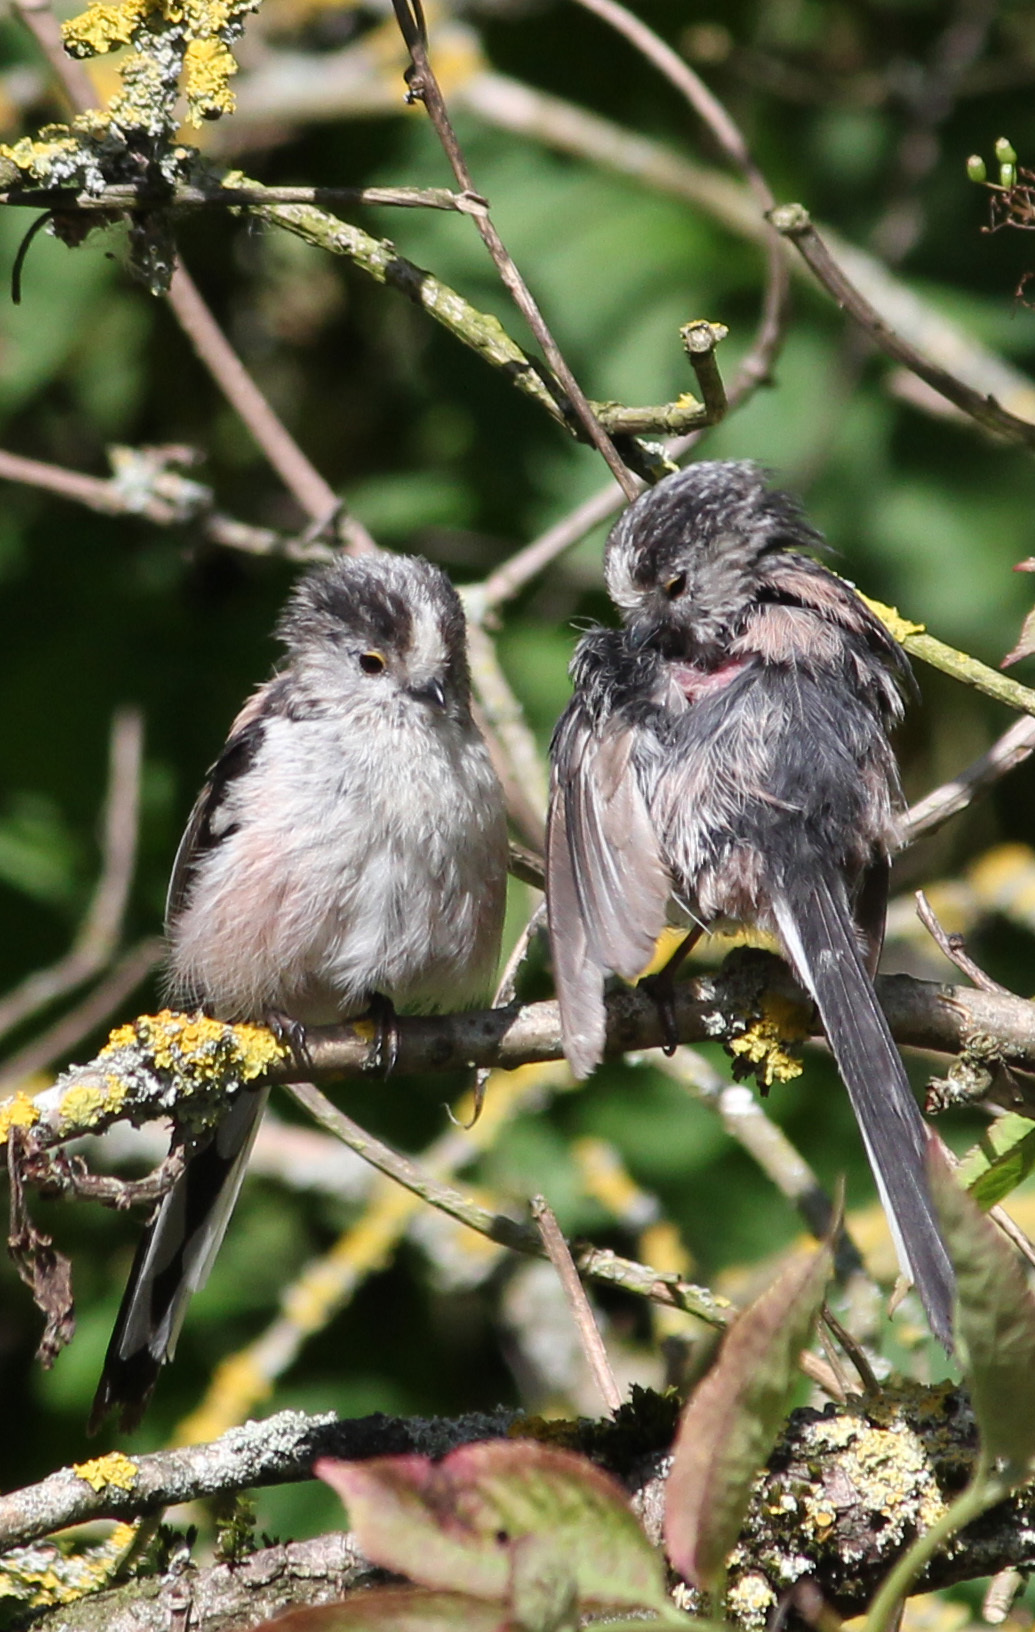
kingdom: Animalia
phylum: Chordata
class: Aves
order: Passeriformes
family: Aegithalidae
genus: Aegithalos
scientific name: Aegithalos caudatus
